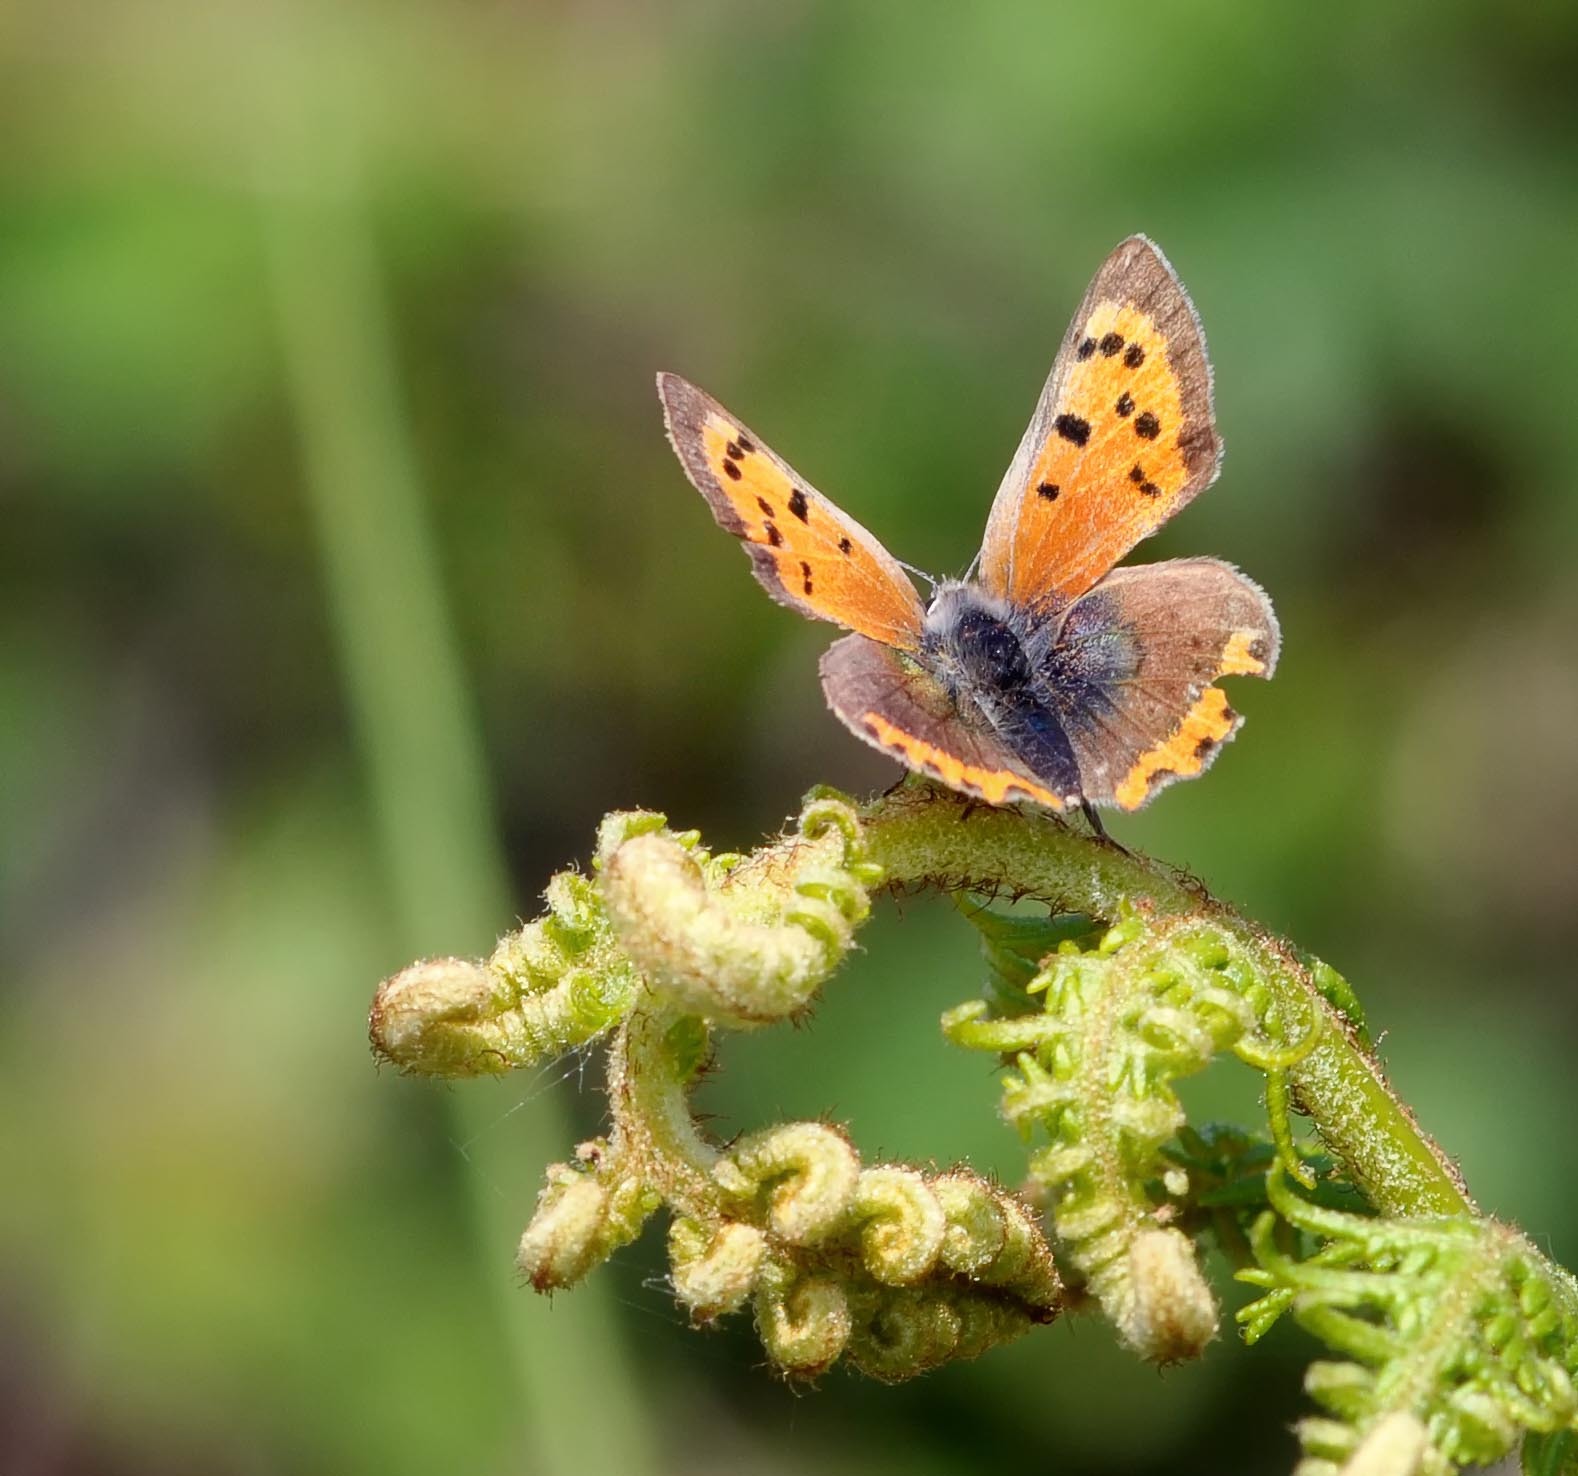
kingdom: Animalia
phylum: Arthropoda
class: Insecta
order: Lepidoptera
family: Lycaenidae
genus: Lycaena
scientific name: Lycaena phlaeas
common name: Small copper
